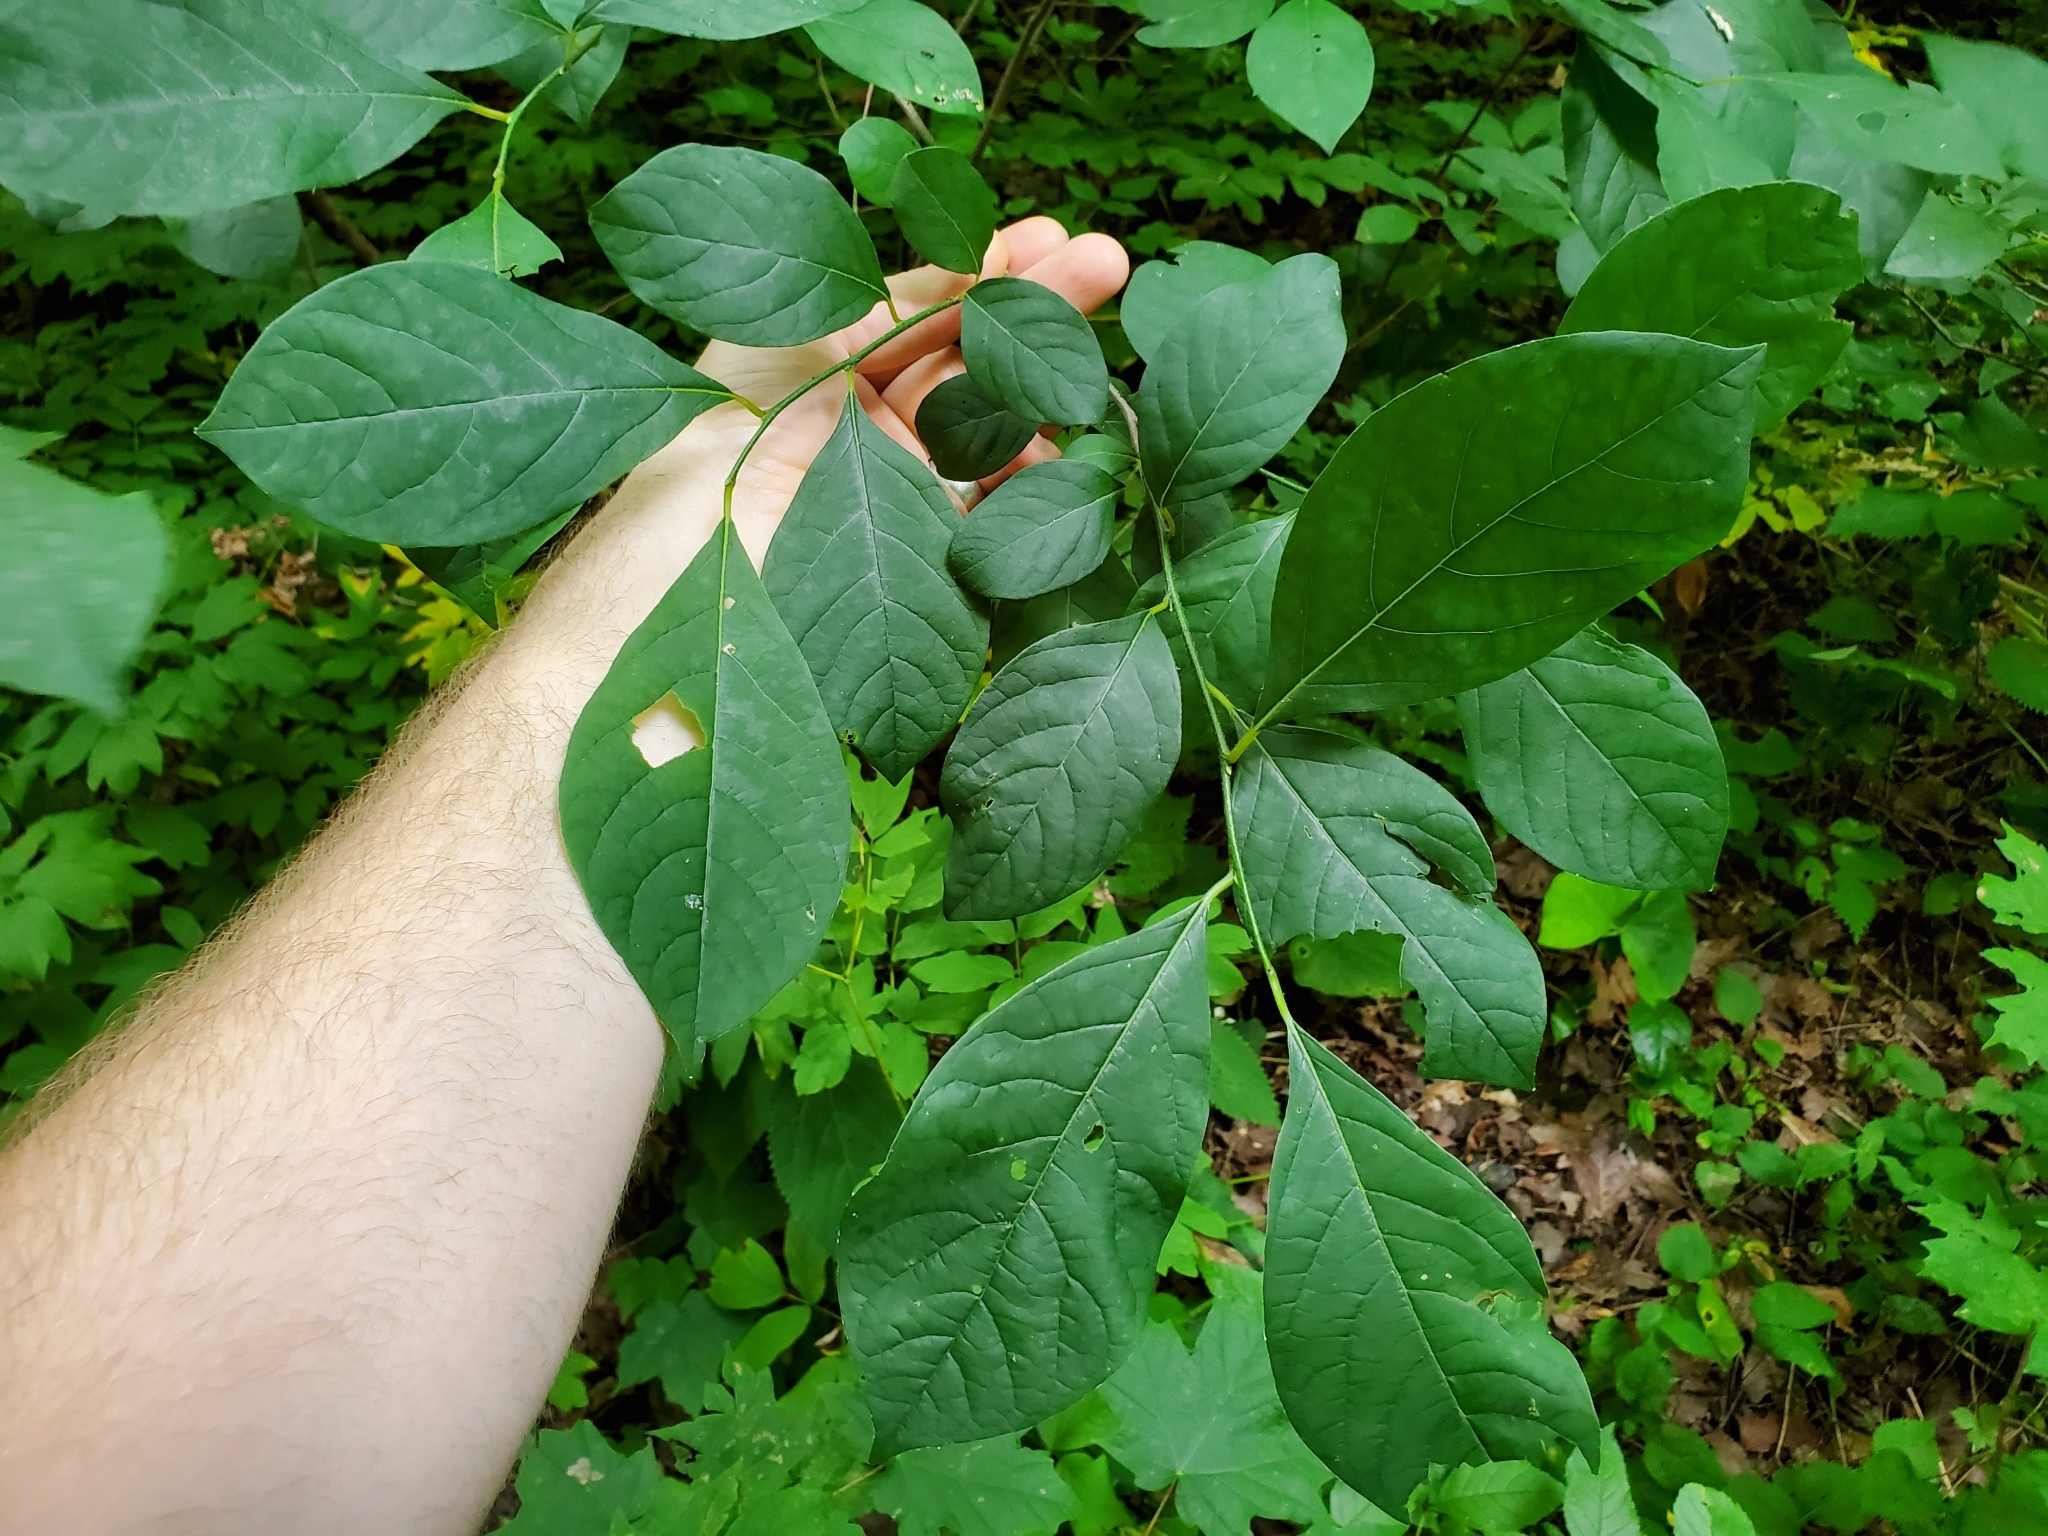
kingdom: Plantae
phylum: Tracheophyta
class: Magnoliopsida
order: Laurales
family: Lauraceae
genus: Lindera
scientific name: Lindera benzoin
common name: Spicebush
